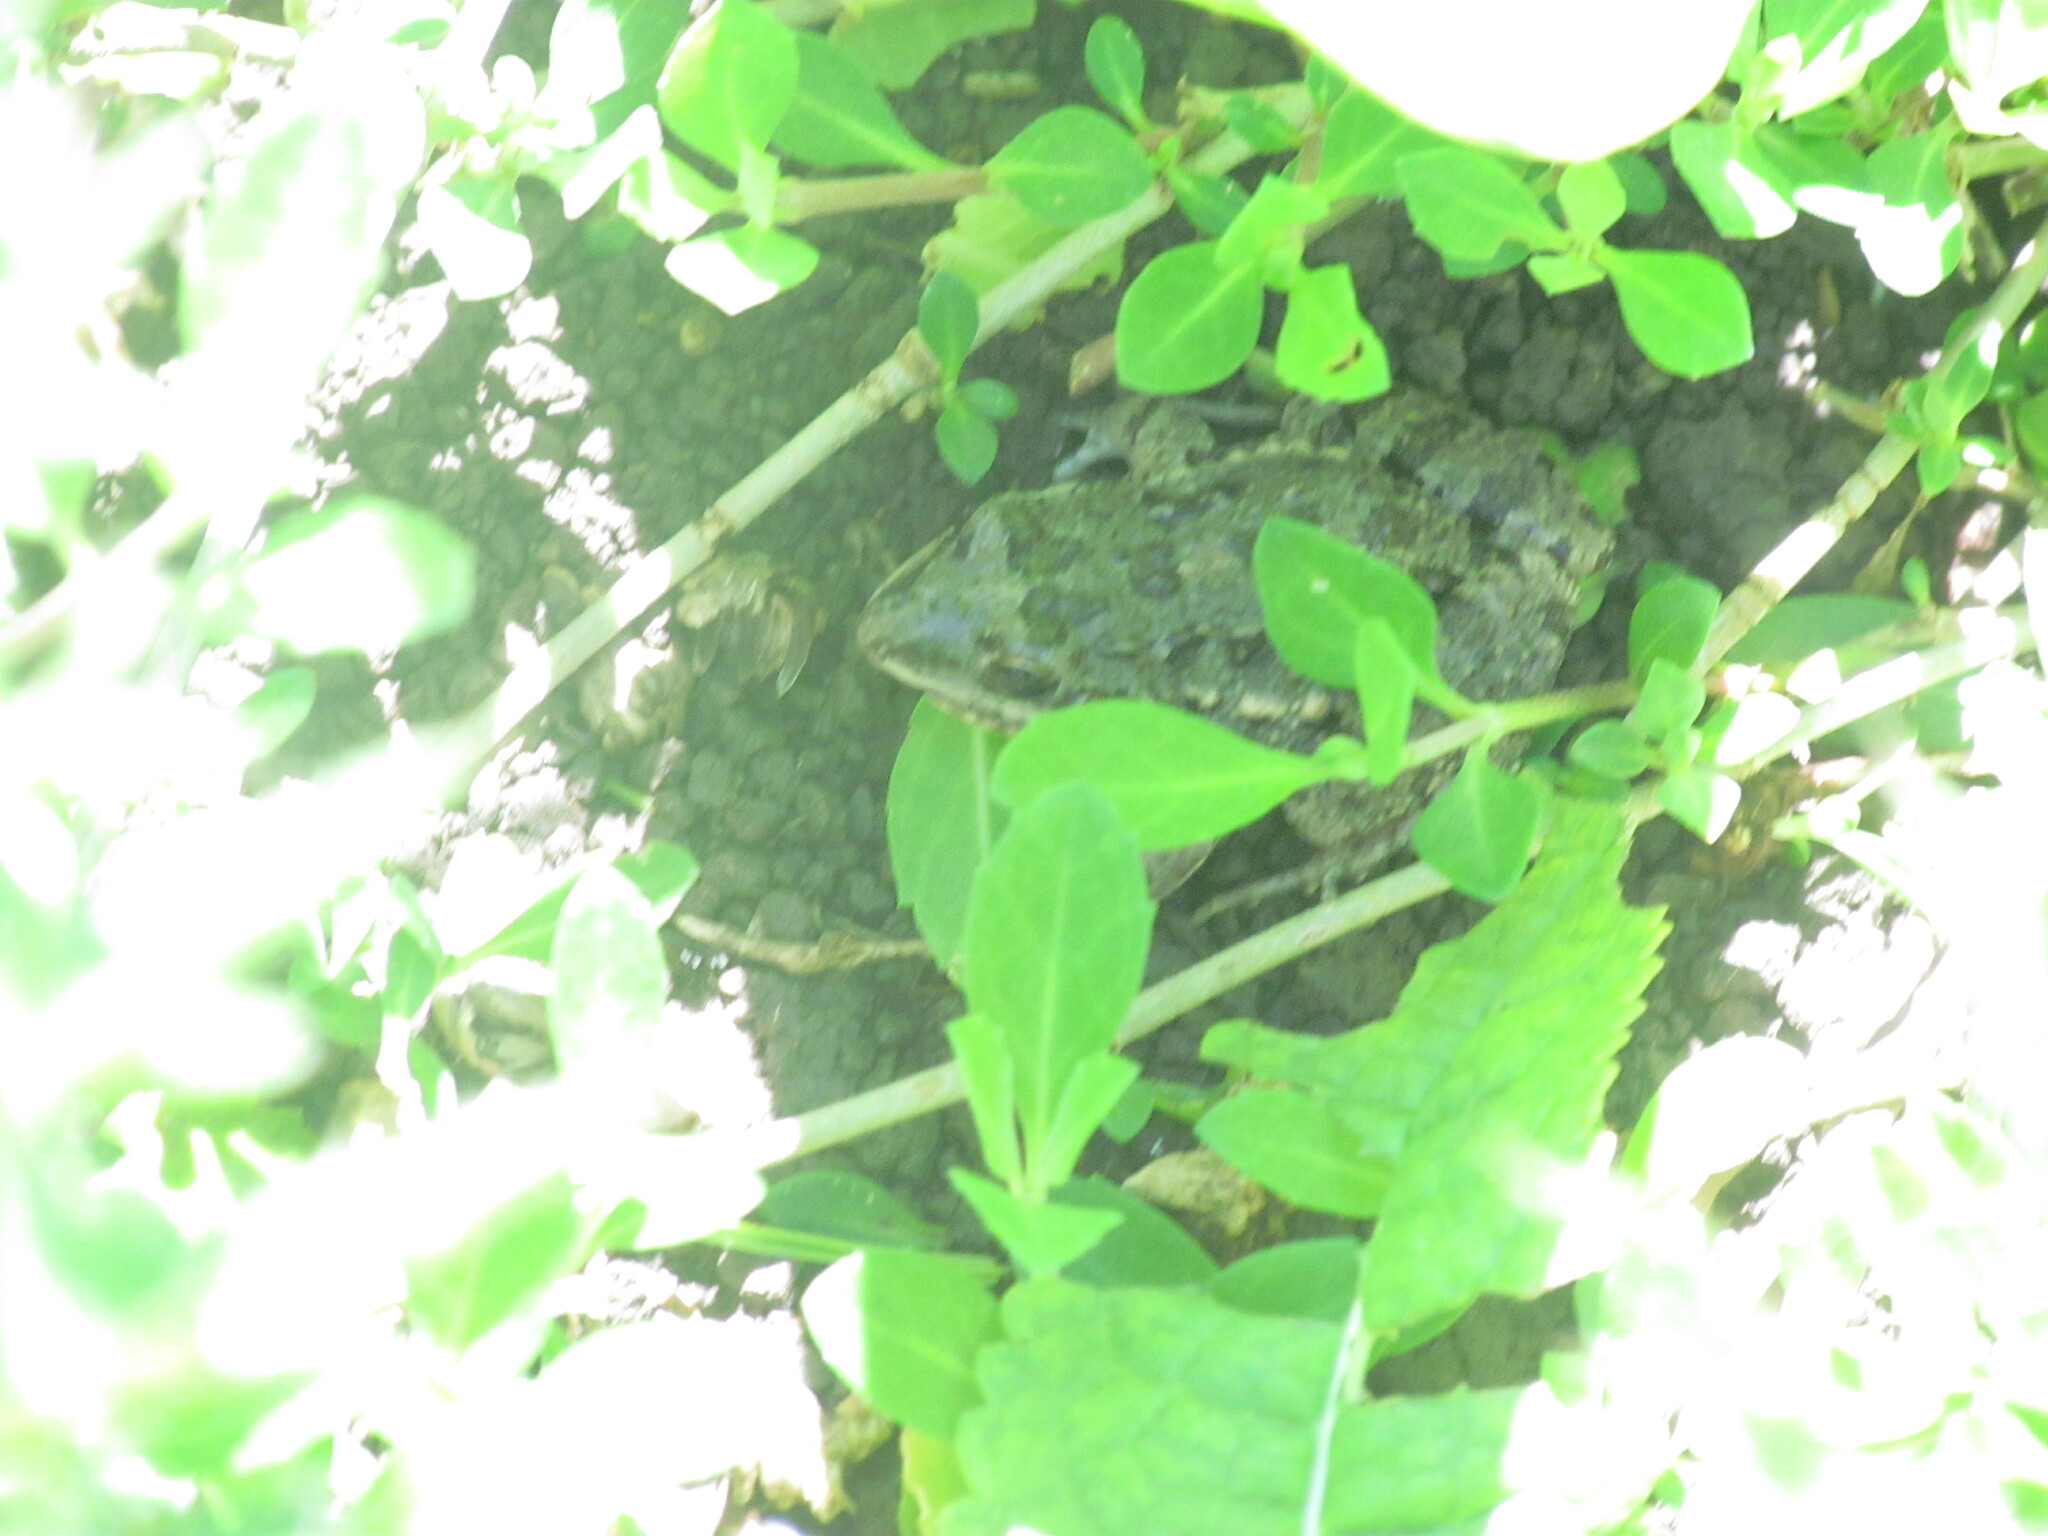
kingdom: Animalia
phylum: Chordata
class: Amphibia
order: Anura
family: Leptodactylidae
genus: Leptodactylus
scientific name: Leptodactylus latinasus
